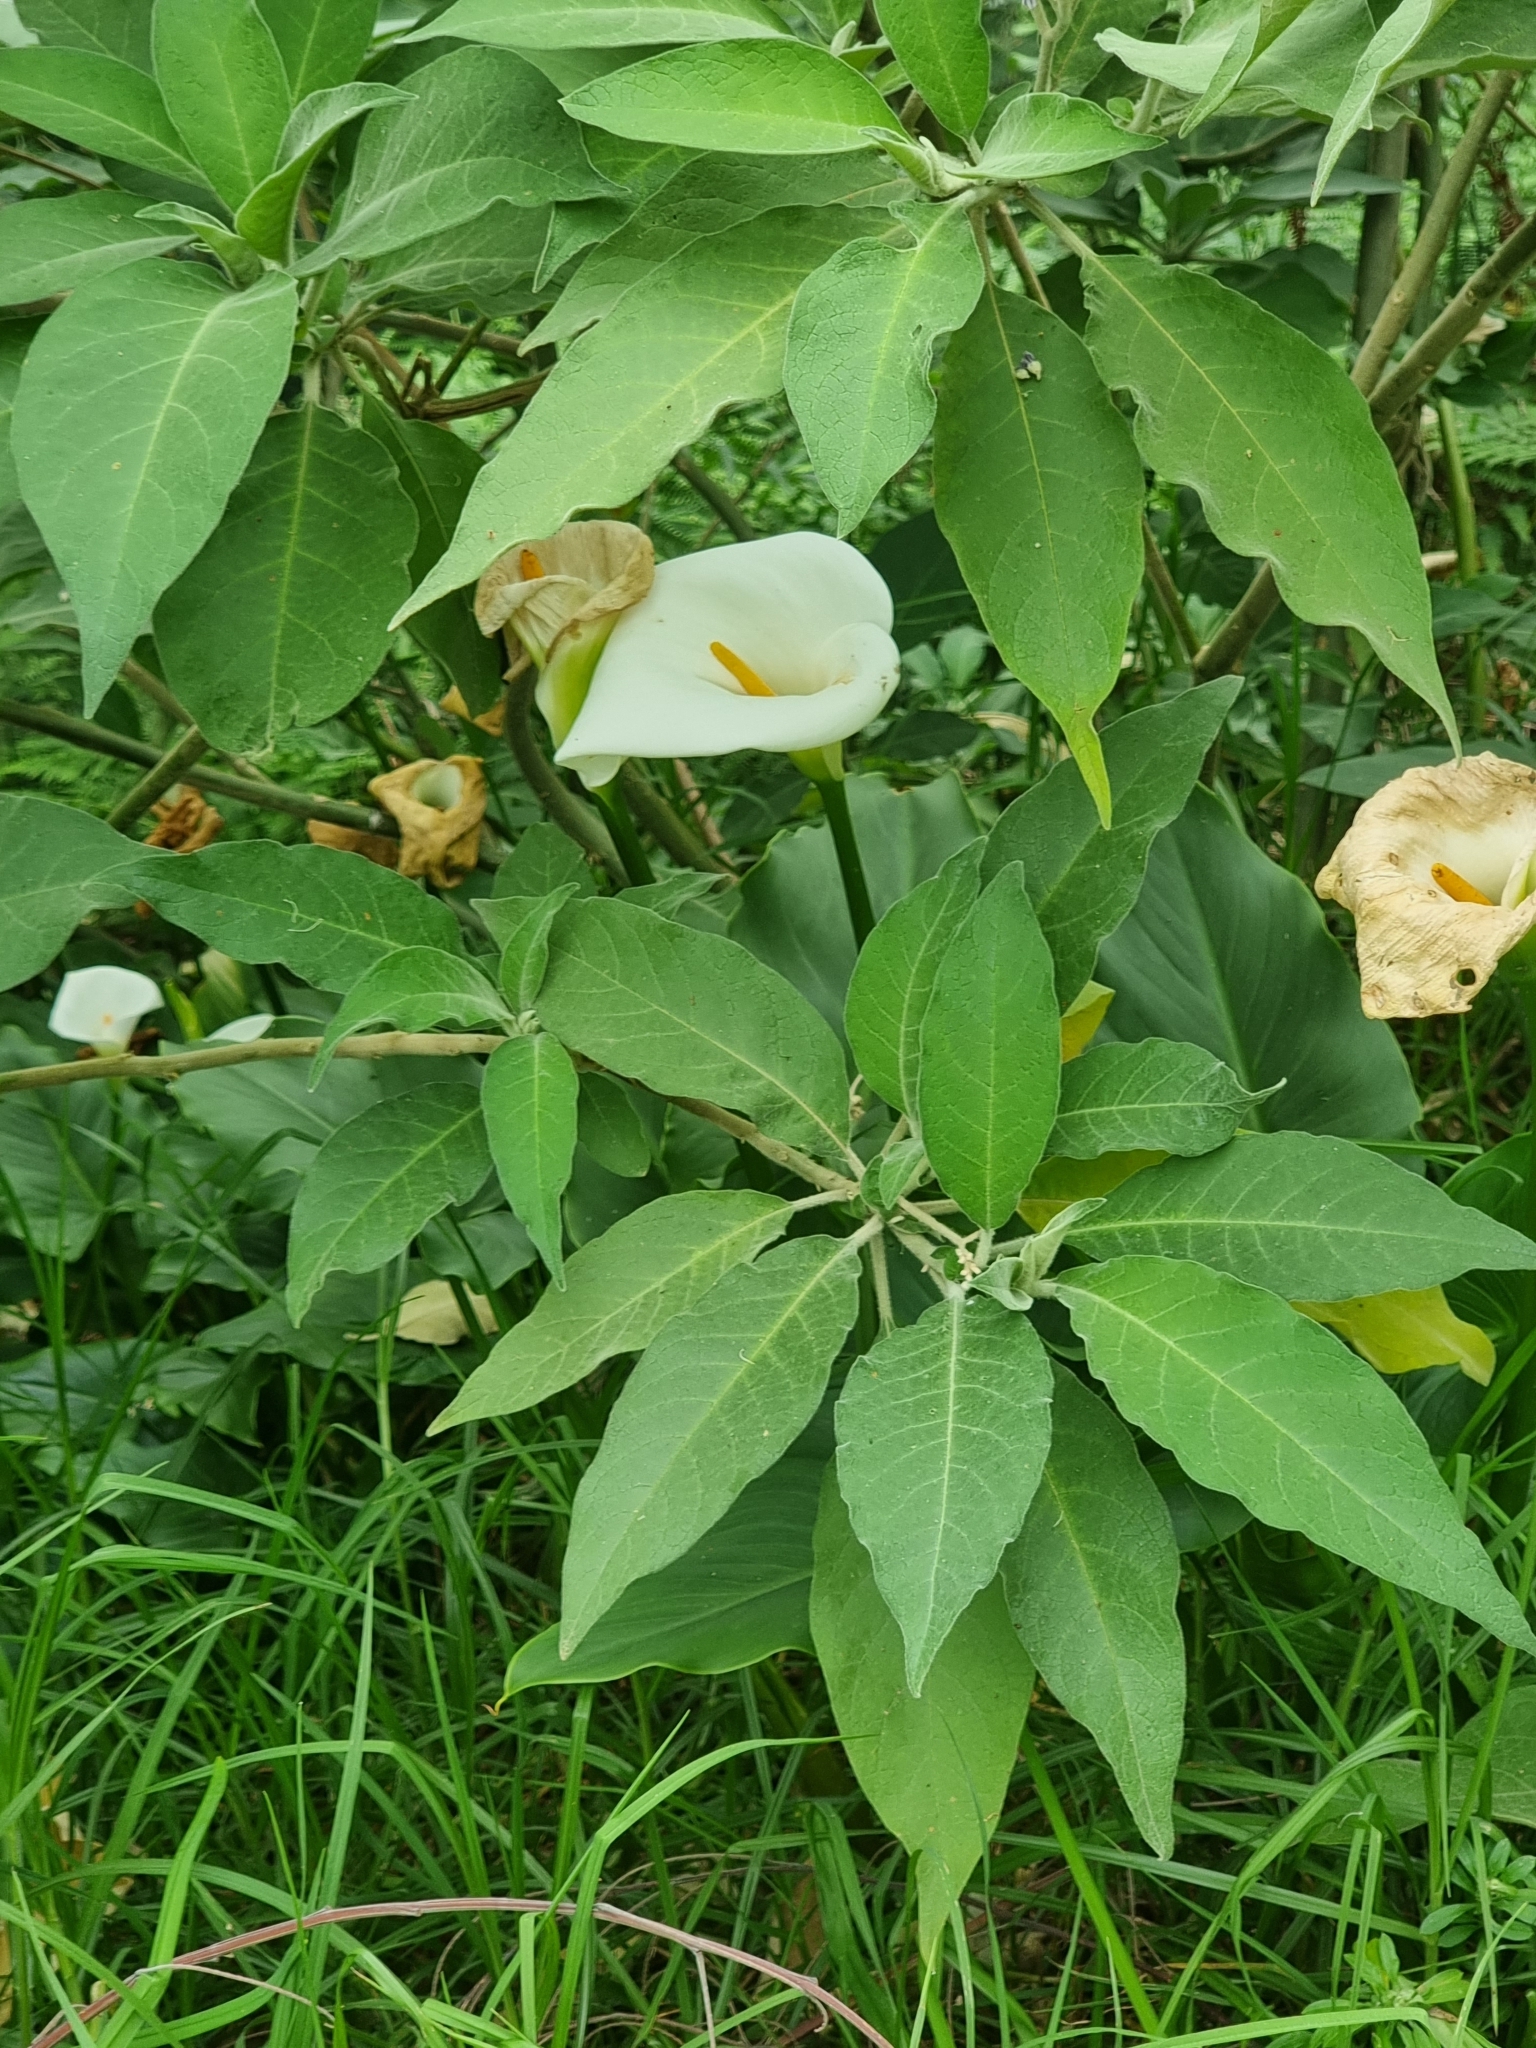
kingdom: Plantae
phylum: Tracheophyta
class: Liliopsida
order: Alismatales
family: Araceae
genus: Zantedeschia
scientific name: Zantedeschia aethiopica
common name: Altar-lily
